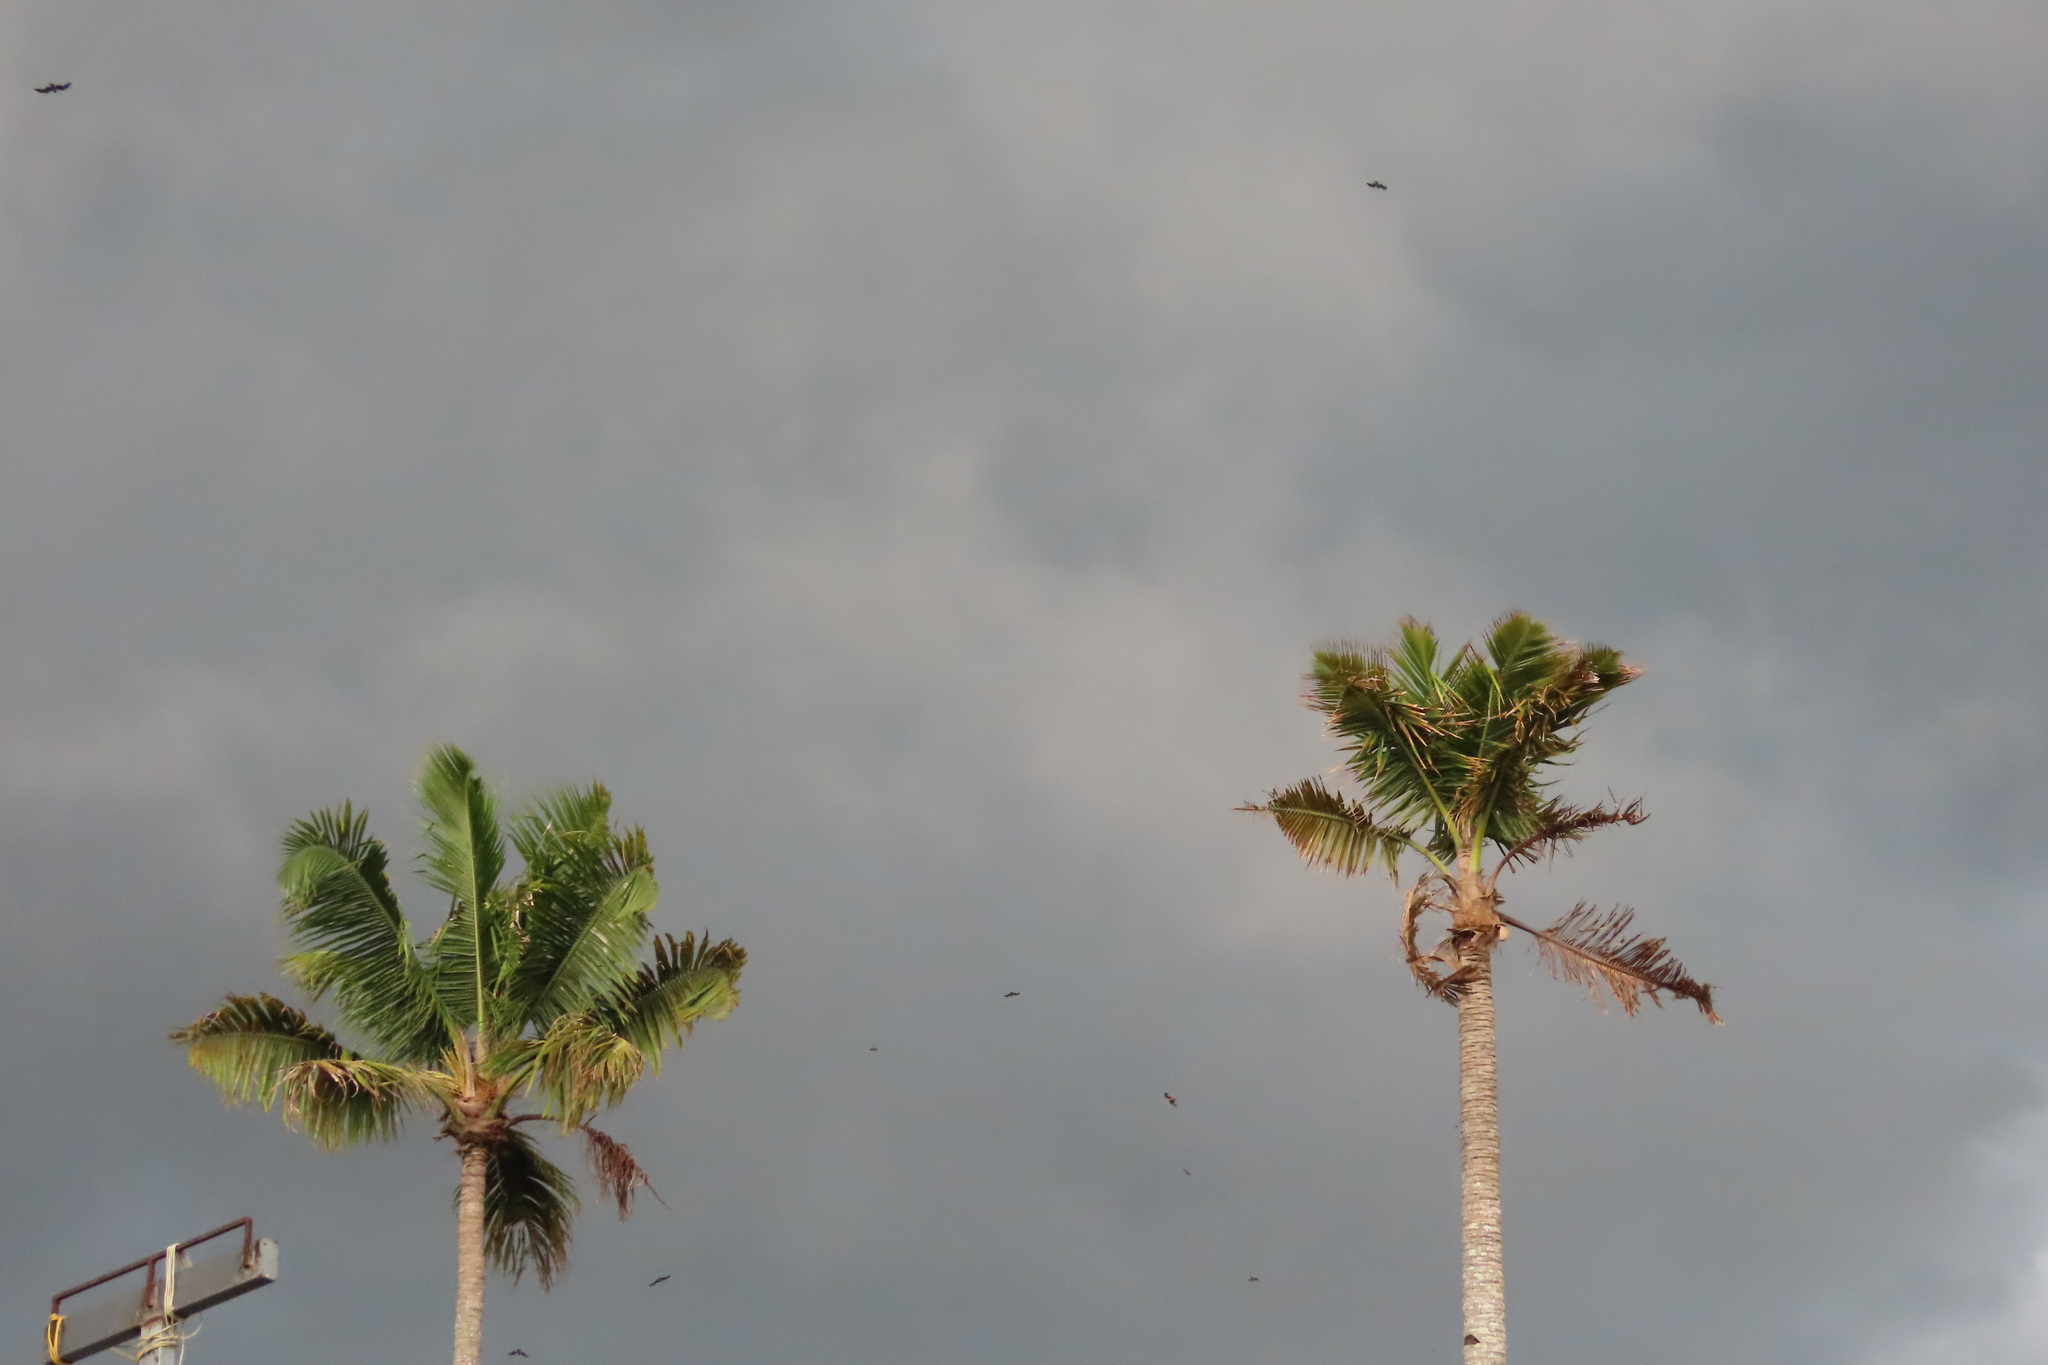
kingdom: Plantae
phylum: Tracheophyta
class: Liliopsida
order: Arecales
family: Arecaceae
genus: Cocos
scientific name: Cocos nucifera
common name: Coconut palm
